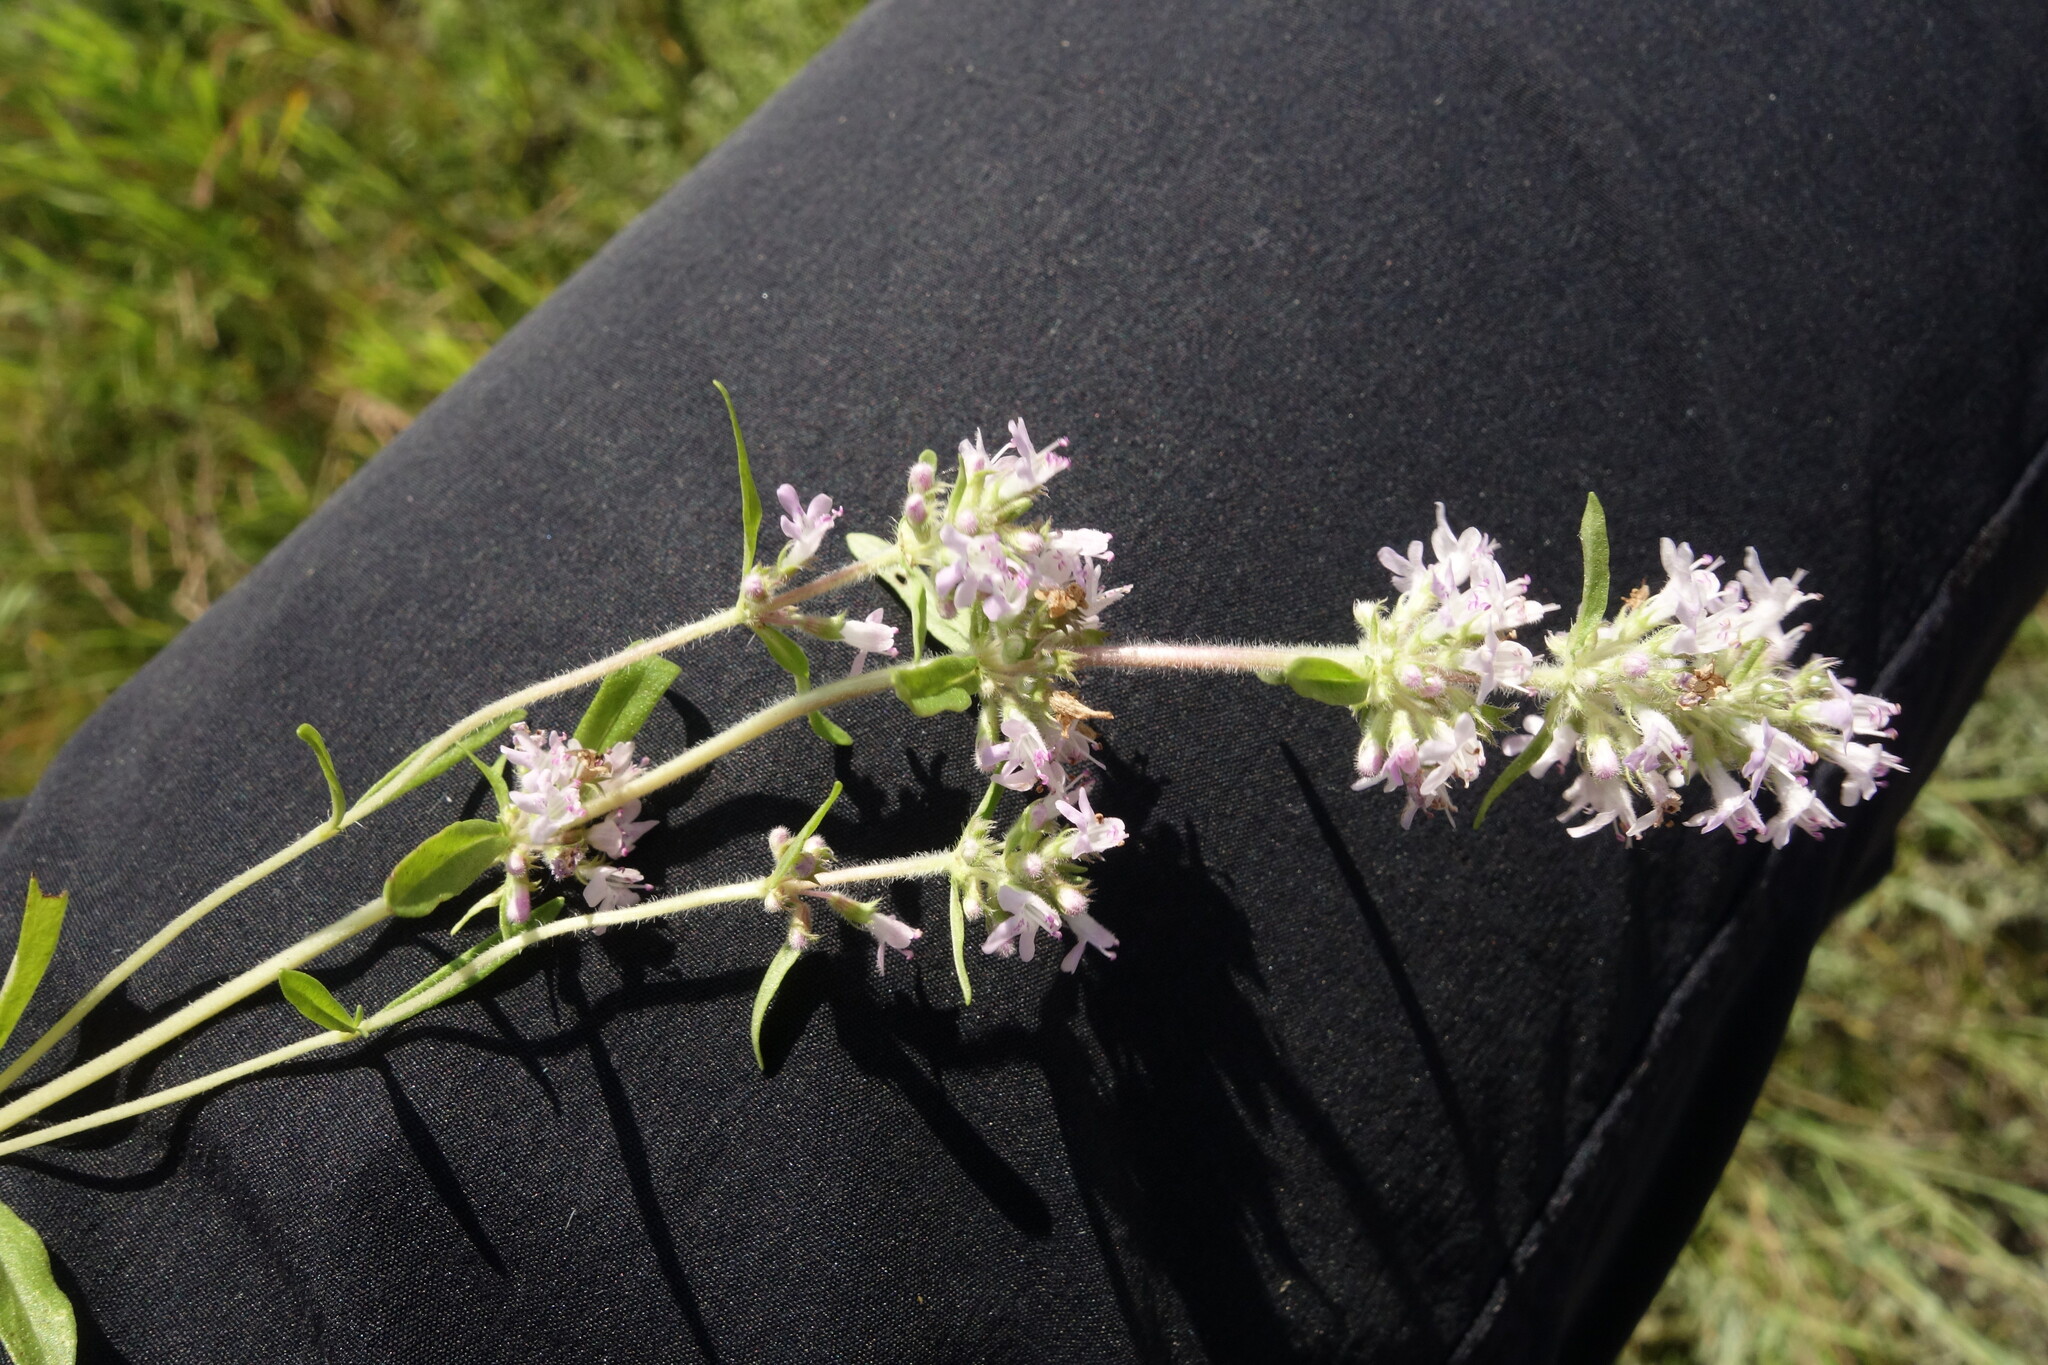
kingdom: Plantae
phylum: Tracheophyta
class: Magnoliopsida
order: Lamiales
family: Lamiaceae
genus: Thymus
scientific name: Thymus pannonicus
